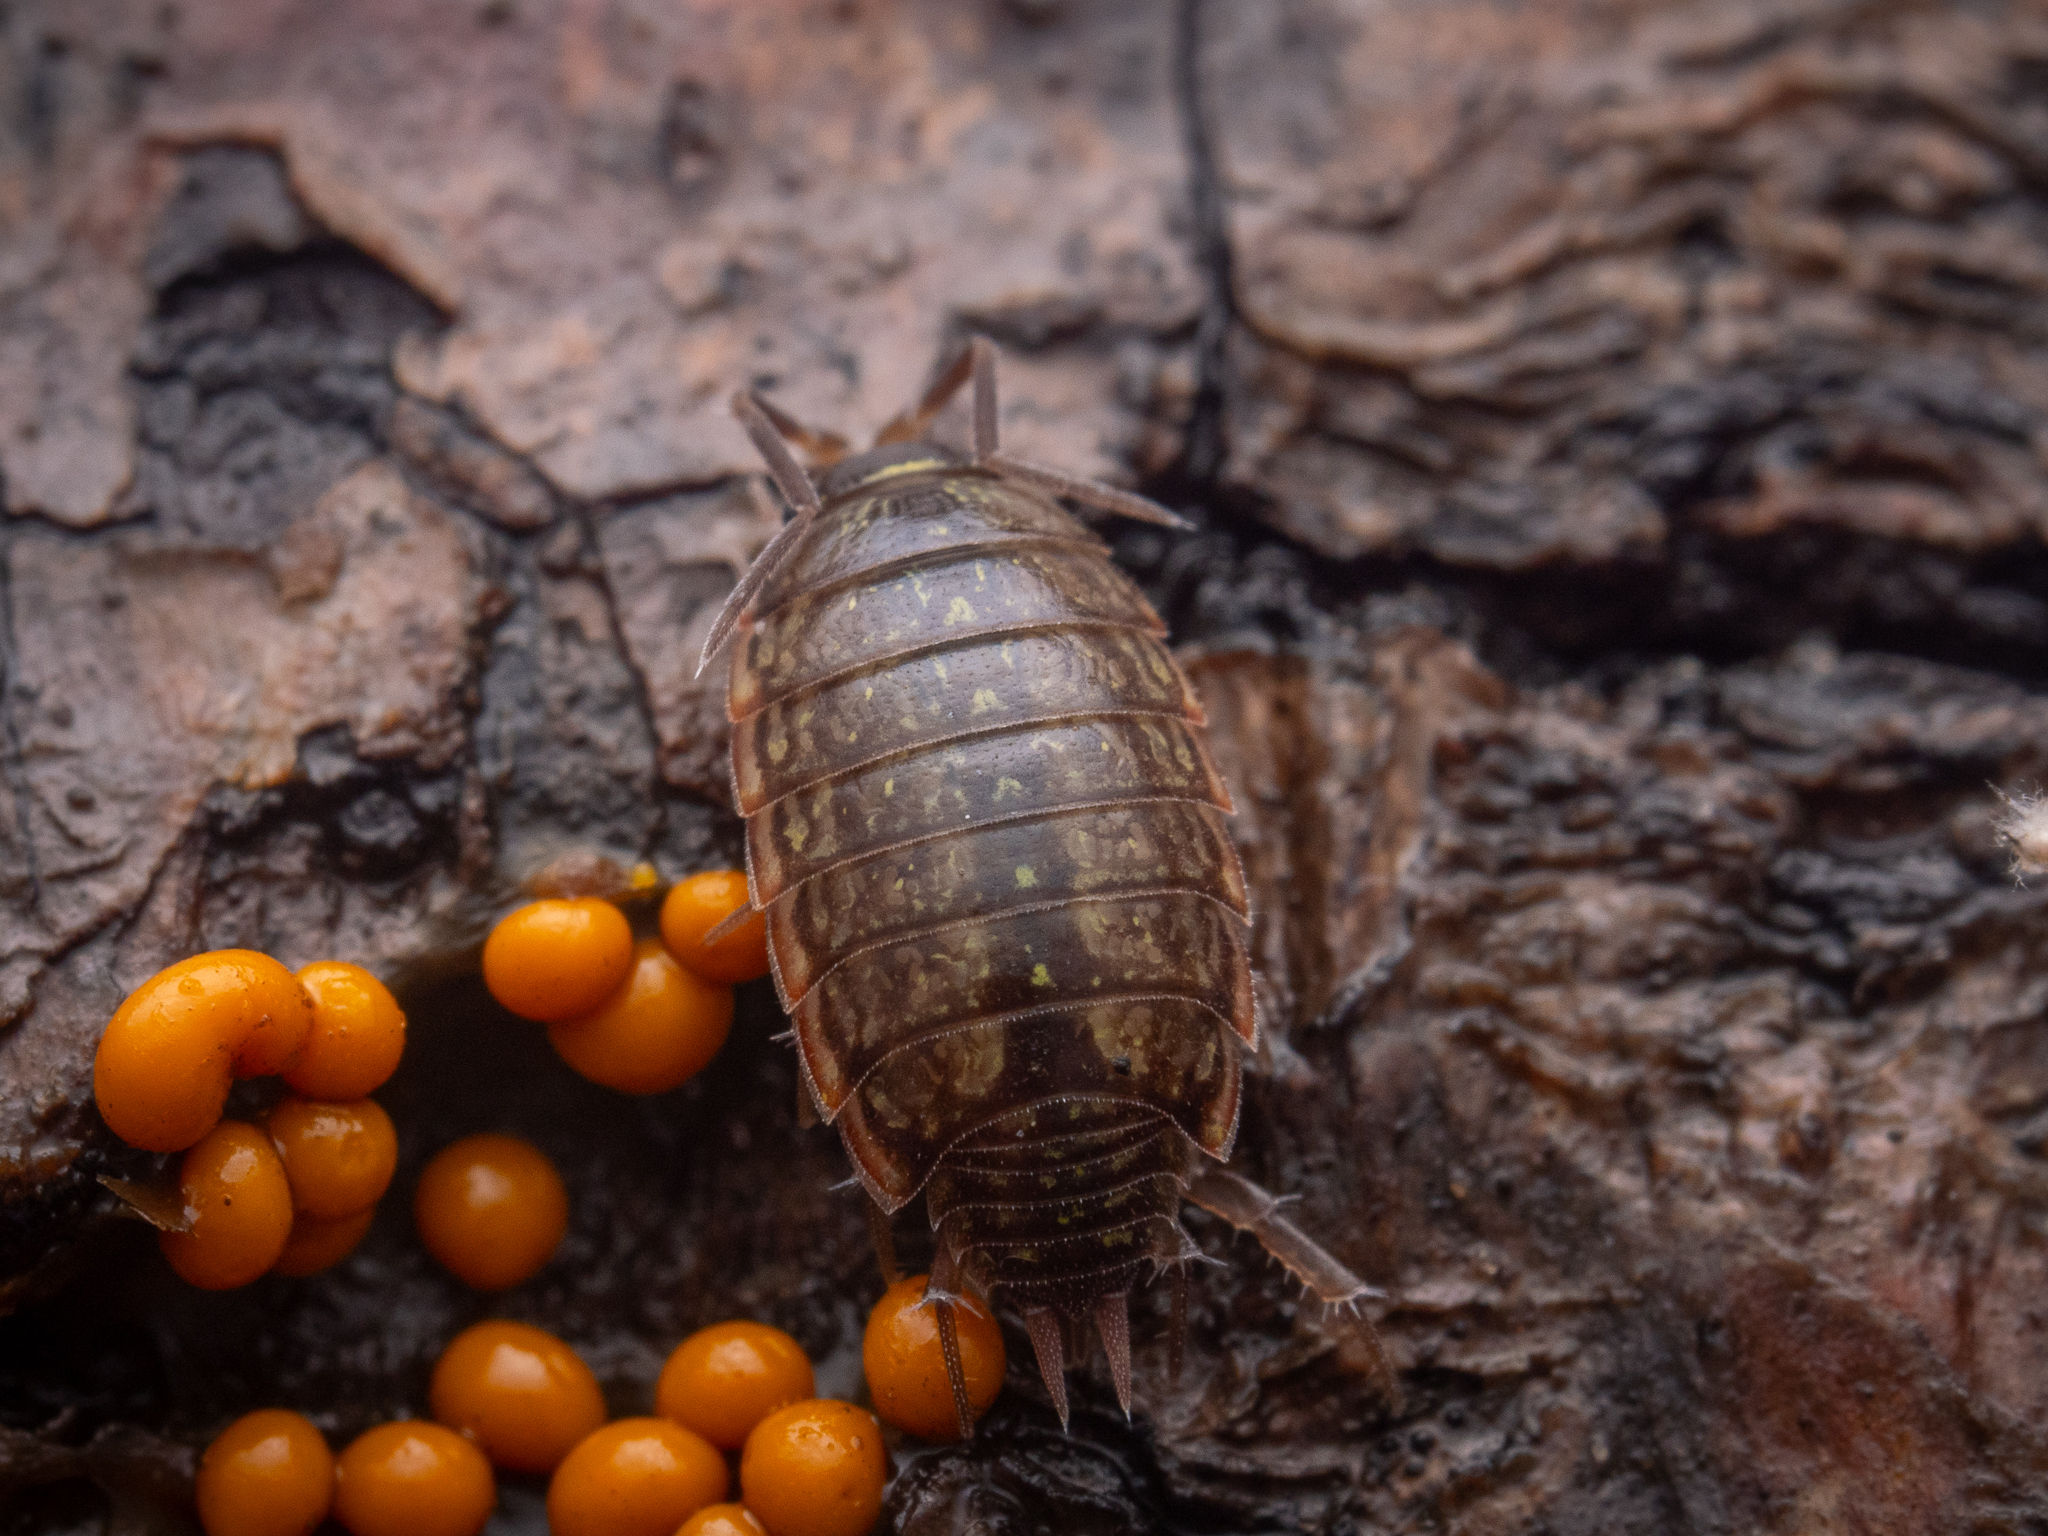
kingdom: Animalia
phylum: Arthropoda
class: Malacostraca
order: Isopoda
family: Philosciidae
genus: Philoscia
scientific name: Philoscia muscorum
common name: Common striped woodlouse
